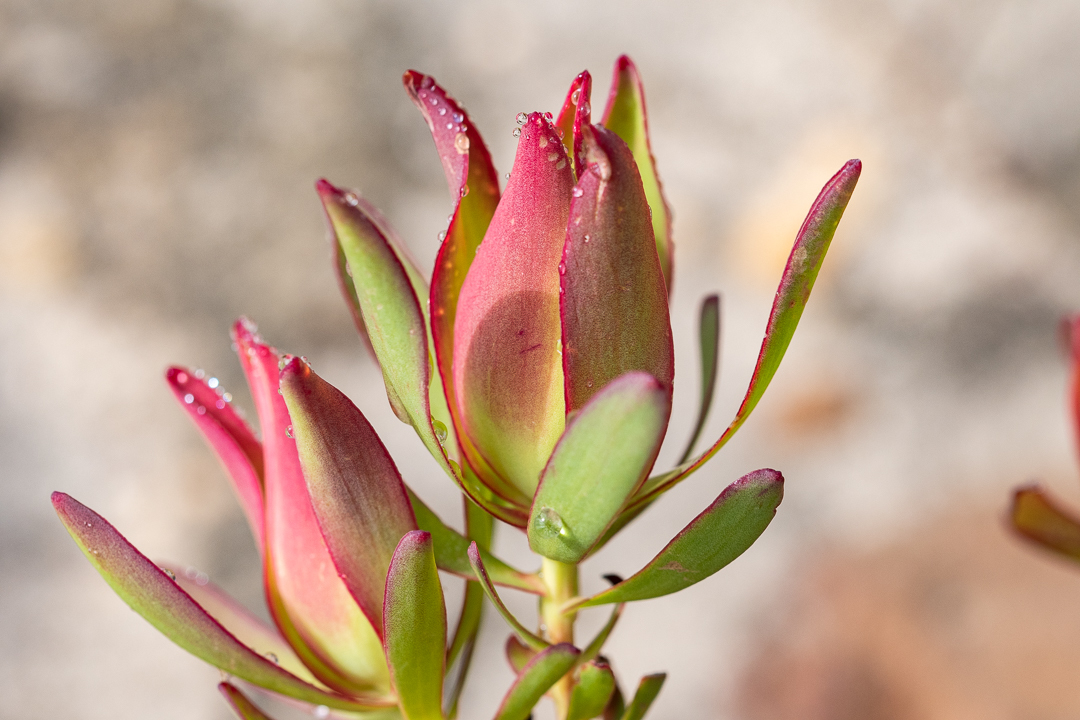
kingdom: Plantae
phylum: Tracheophyta
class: Magnoliopsida
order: Proteales
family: Proteaceae
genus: Leucadendron
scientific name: Leucadendron salignum
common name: Common sunshine conebush
